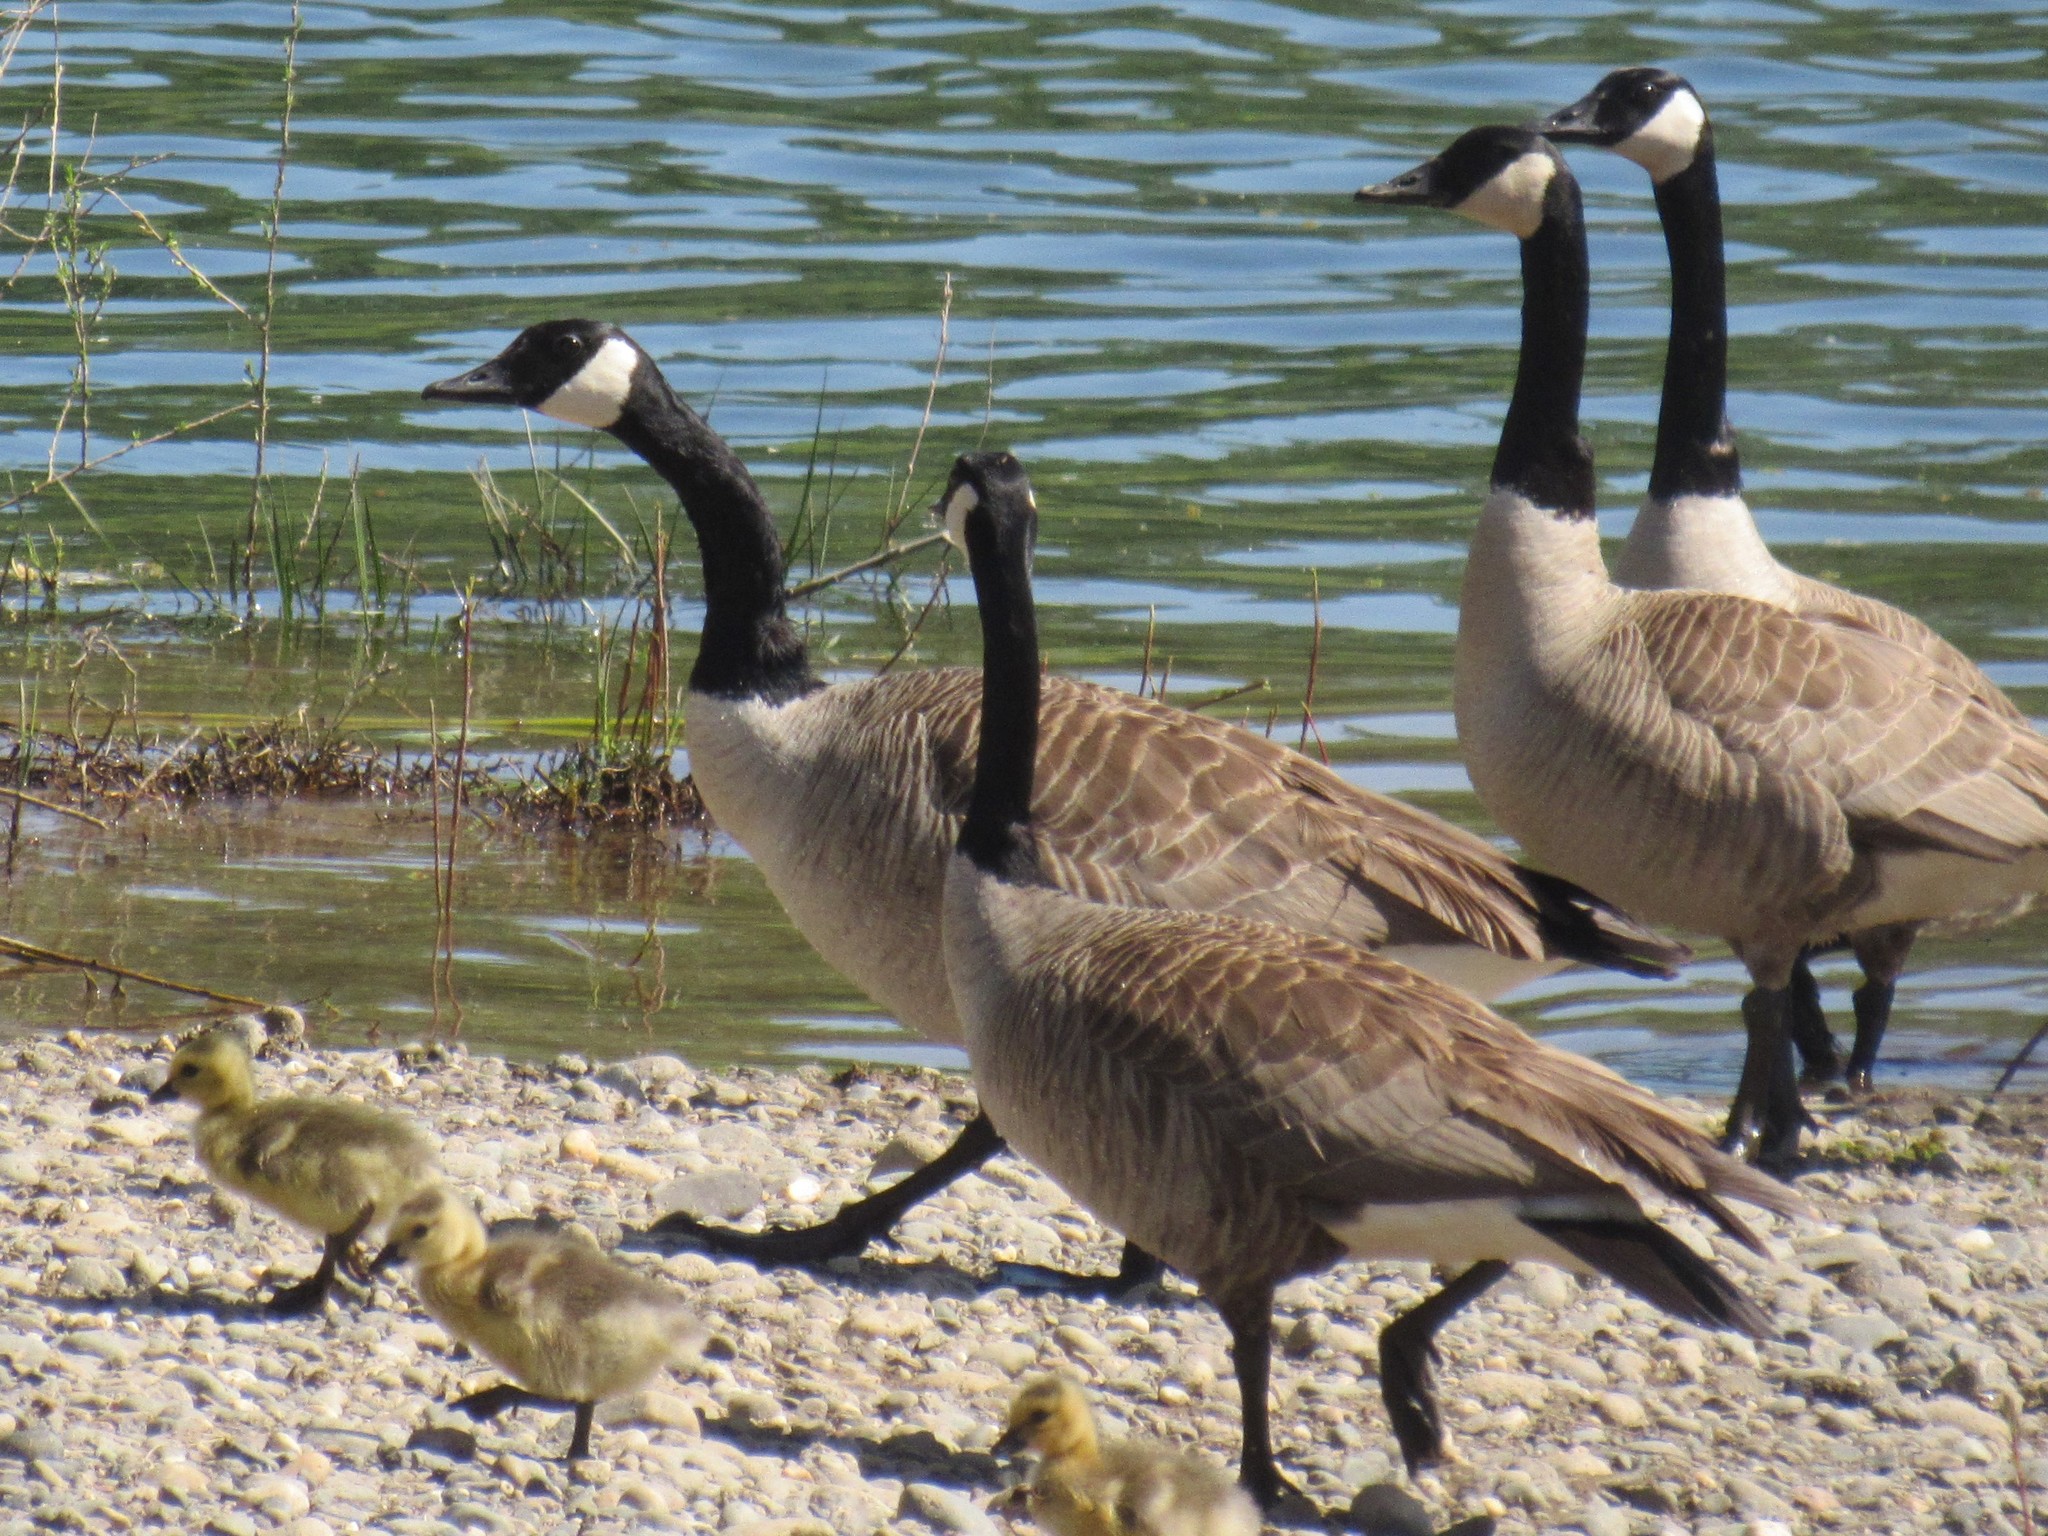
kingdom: Animalia
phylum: Chordata
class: Aves
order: Anseriformes
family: Anatidae
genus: Branta
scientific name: Branta canadensis
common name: Canada goose
